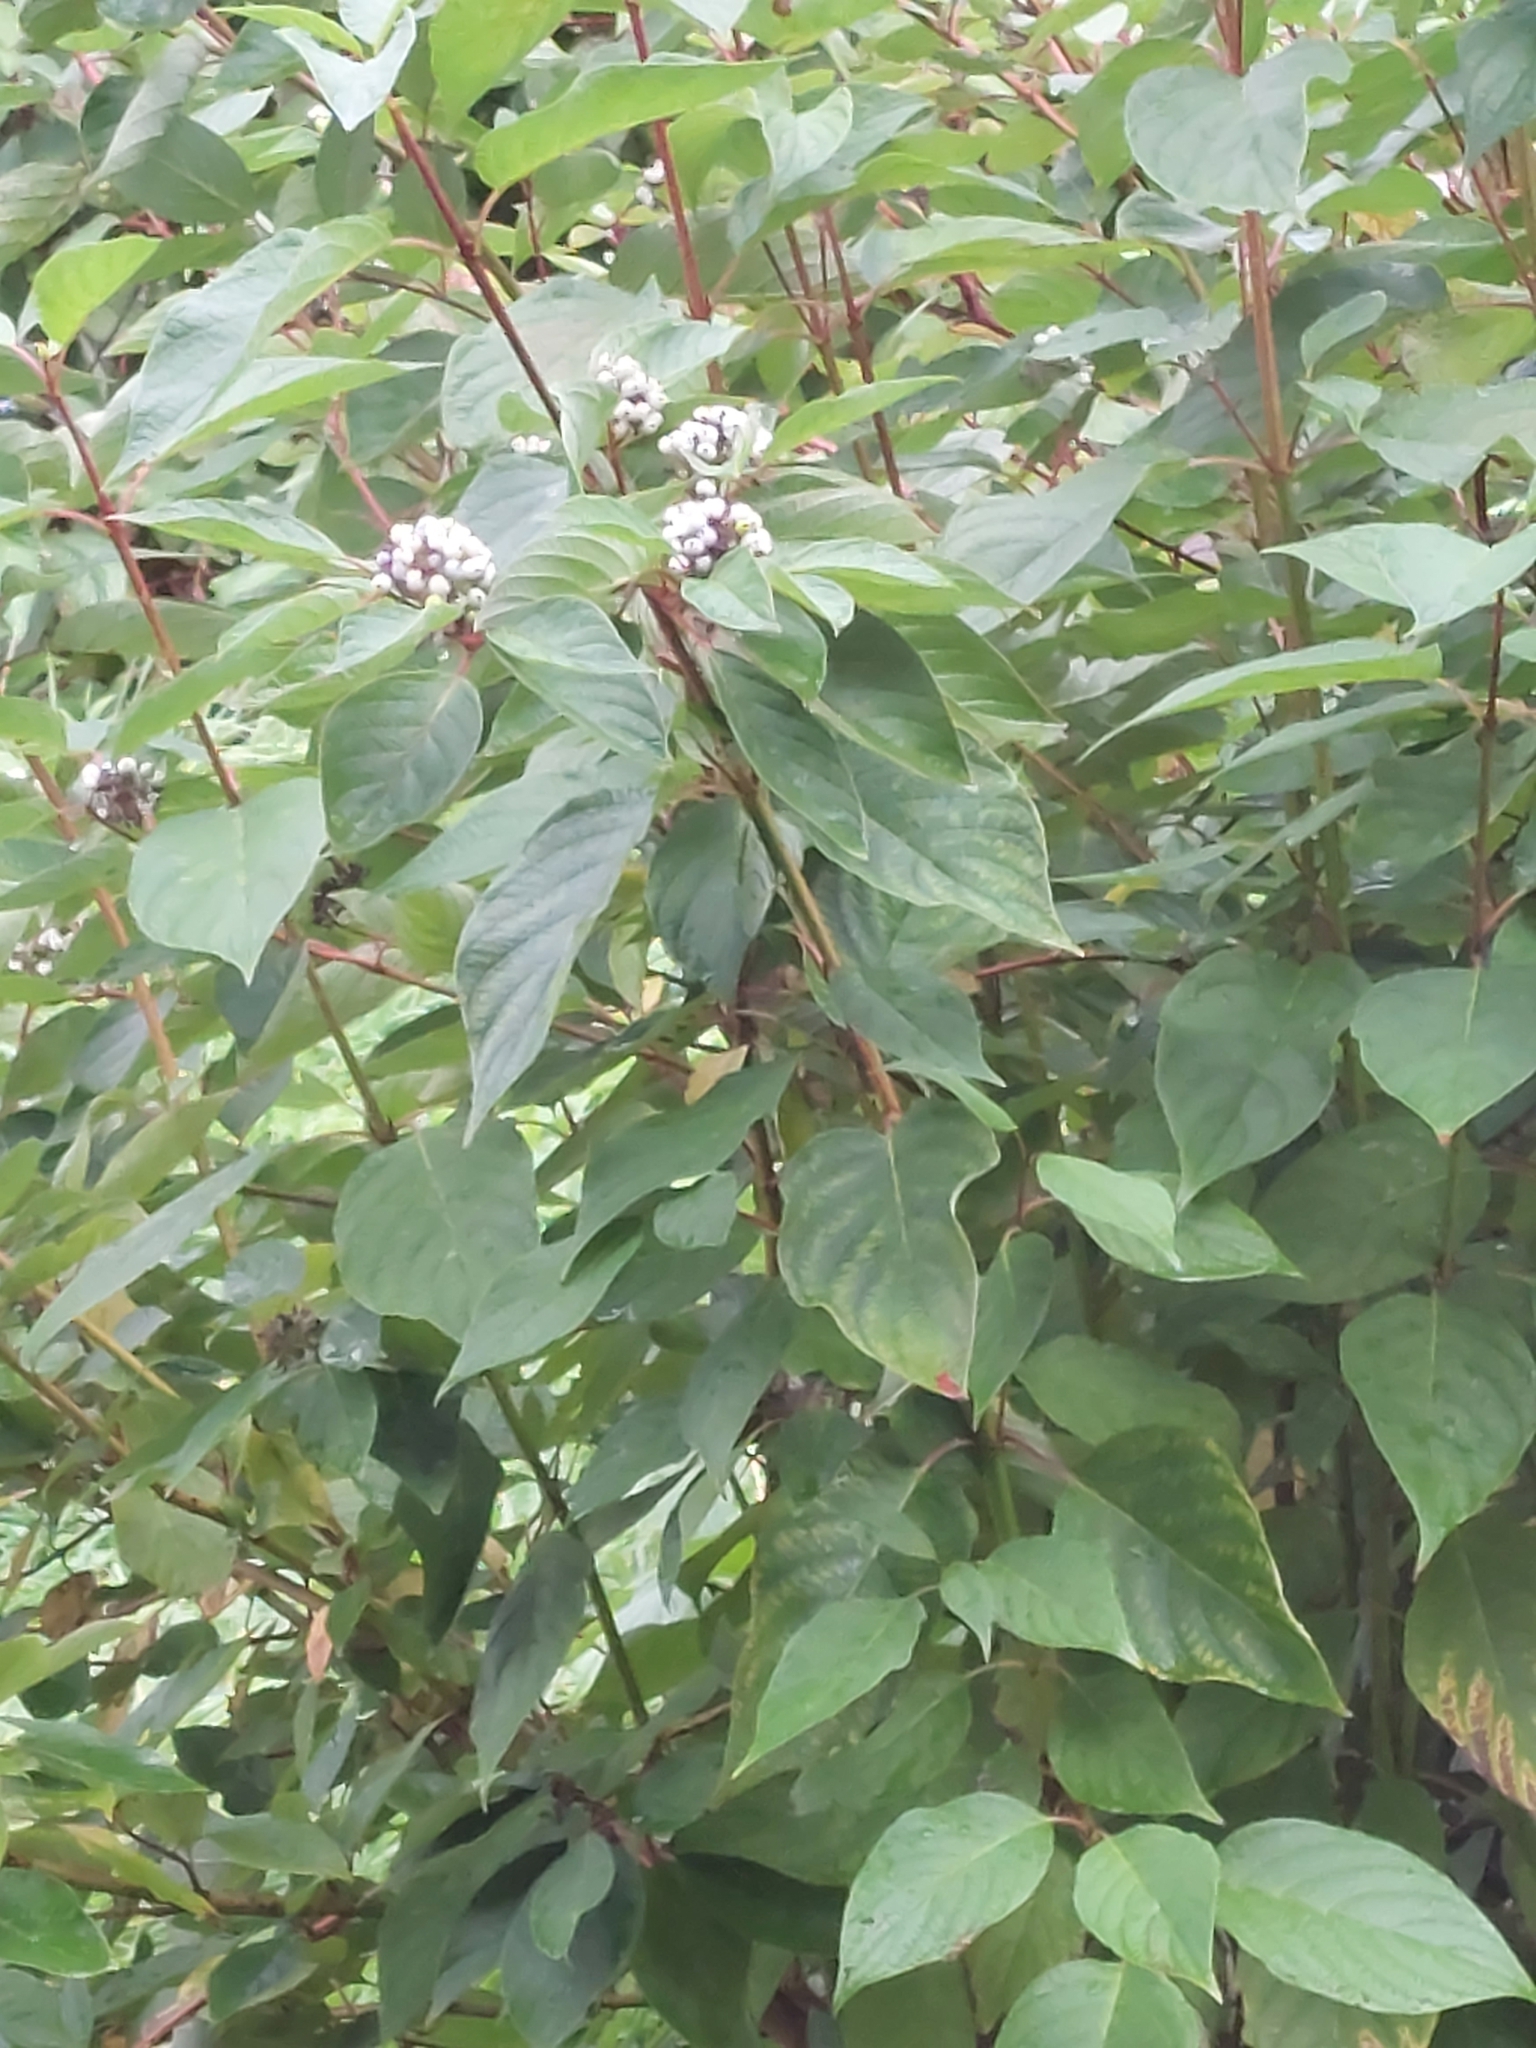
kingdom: Plantae
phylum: Tracheophyta
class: Magnoliopsida
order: Cornales
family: Cornaceae
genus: Cornus
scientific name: Cornus alba
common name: White dogwood
